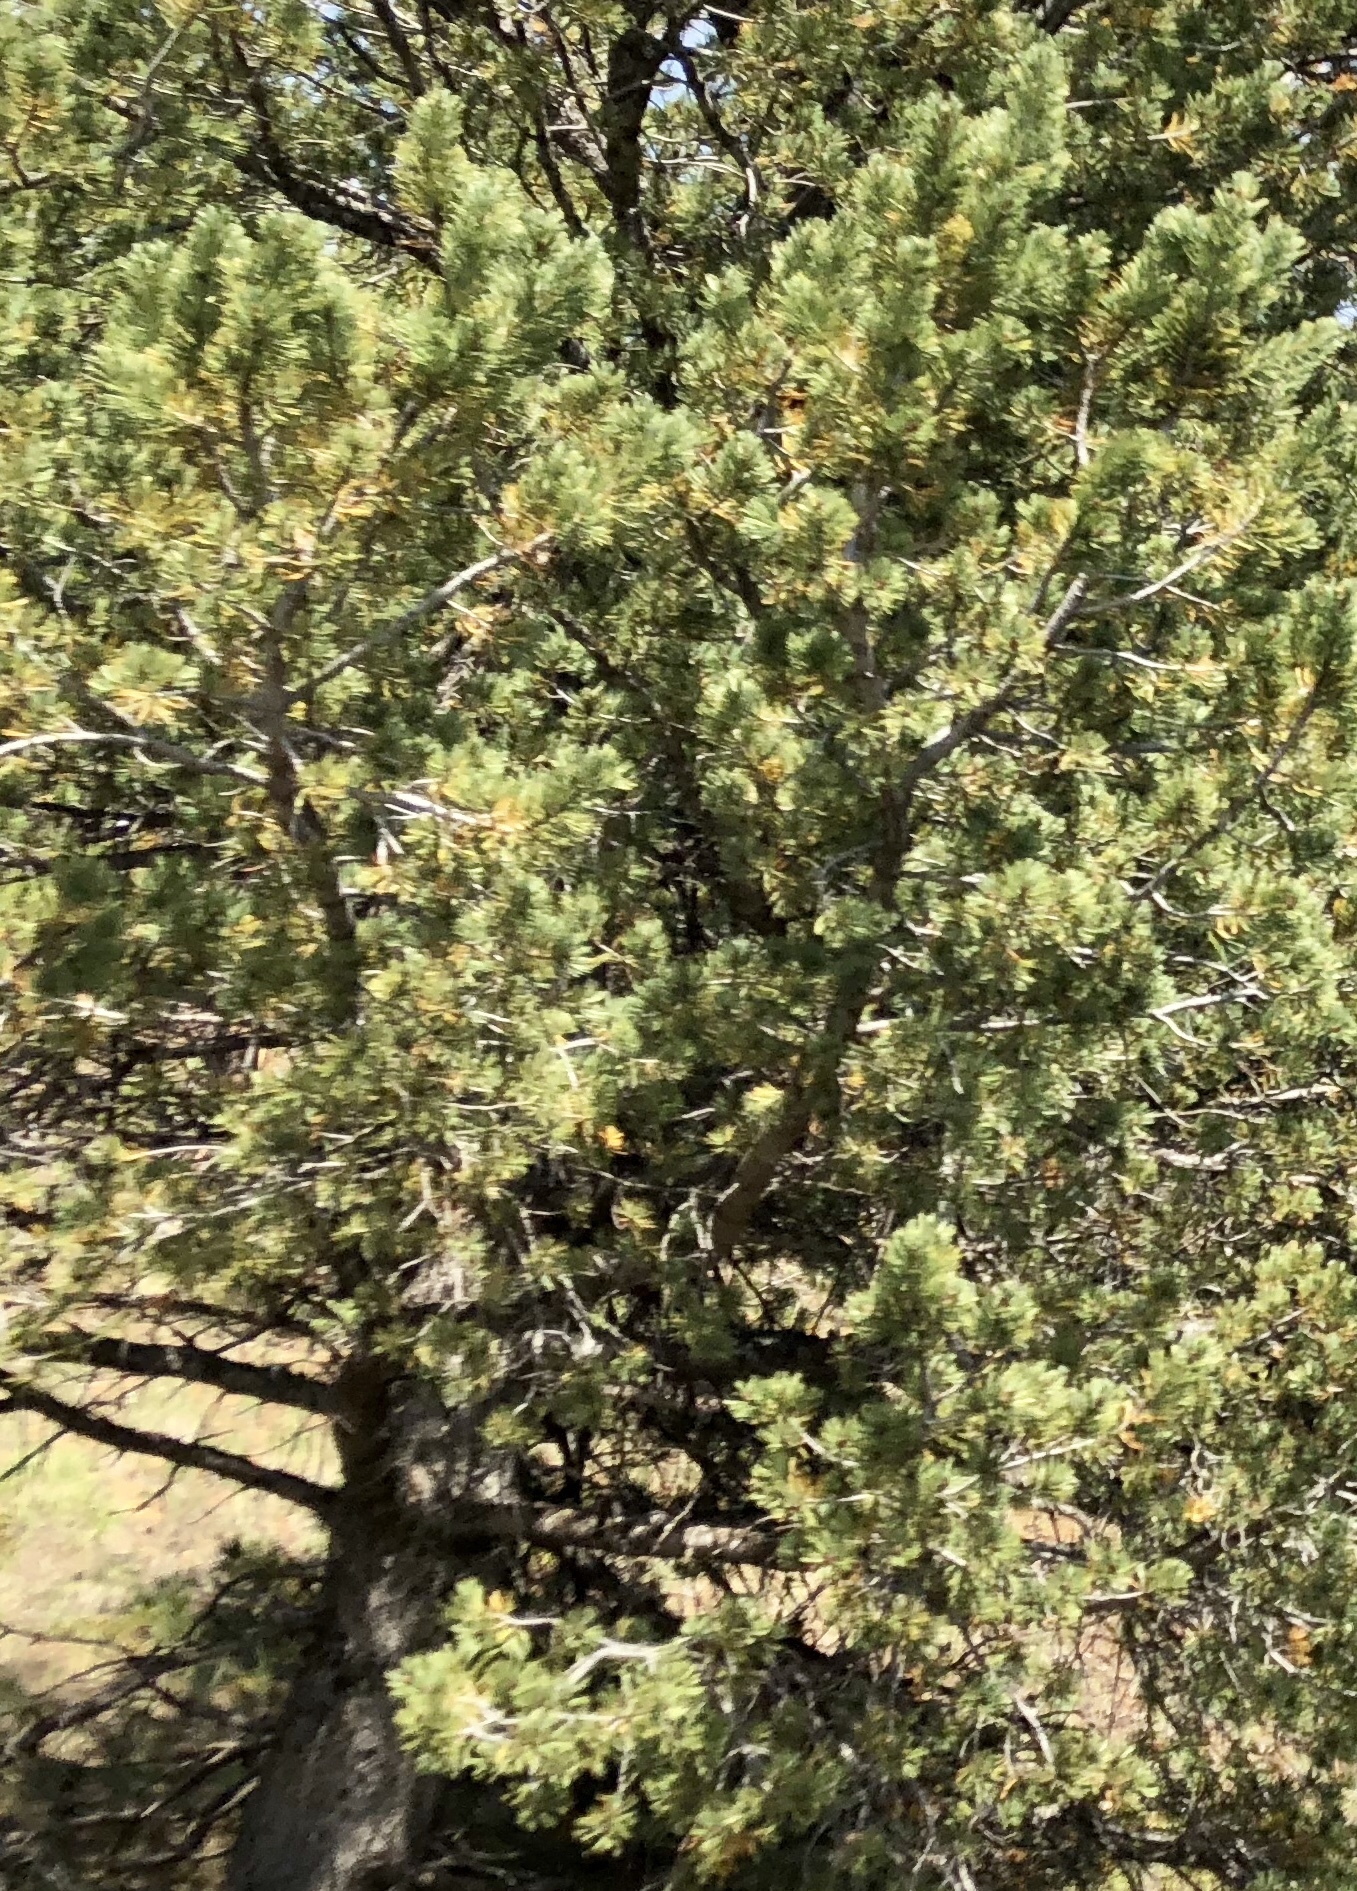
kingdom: Plantae
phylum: Tracheophyta
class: Pinopsida
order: Pinales
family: Pinaceae
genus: Pinus
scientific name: Pinus flexilis
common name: Limber pine
